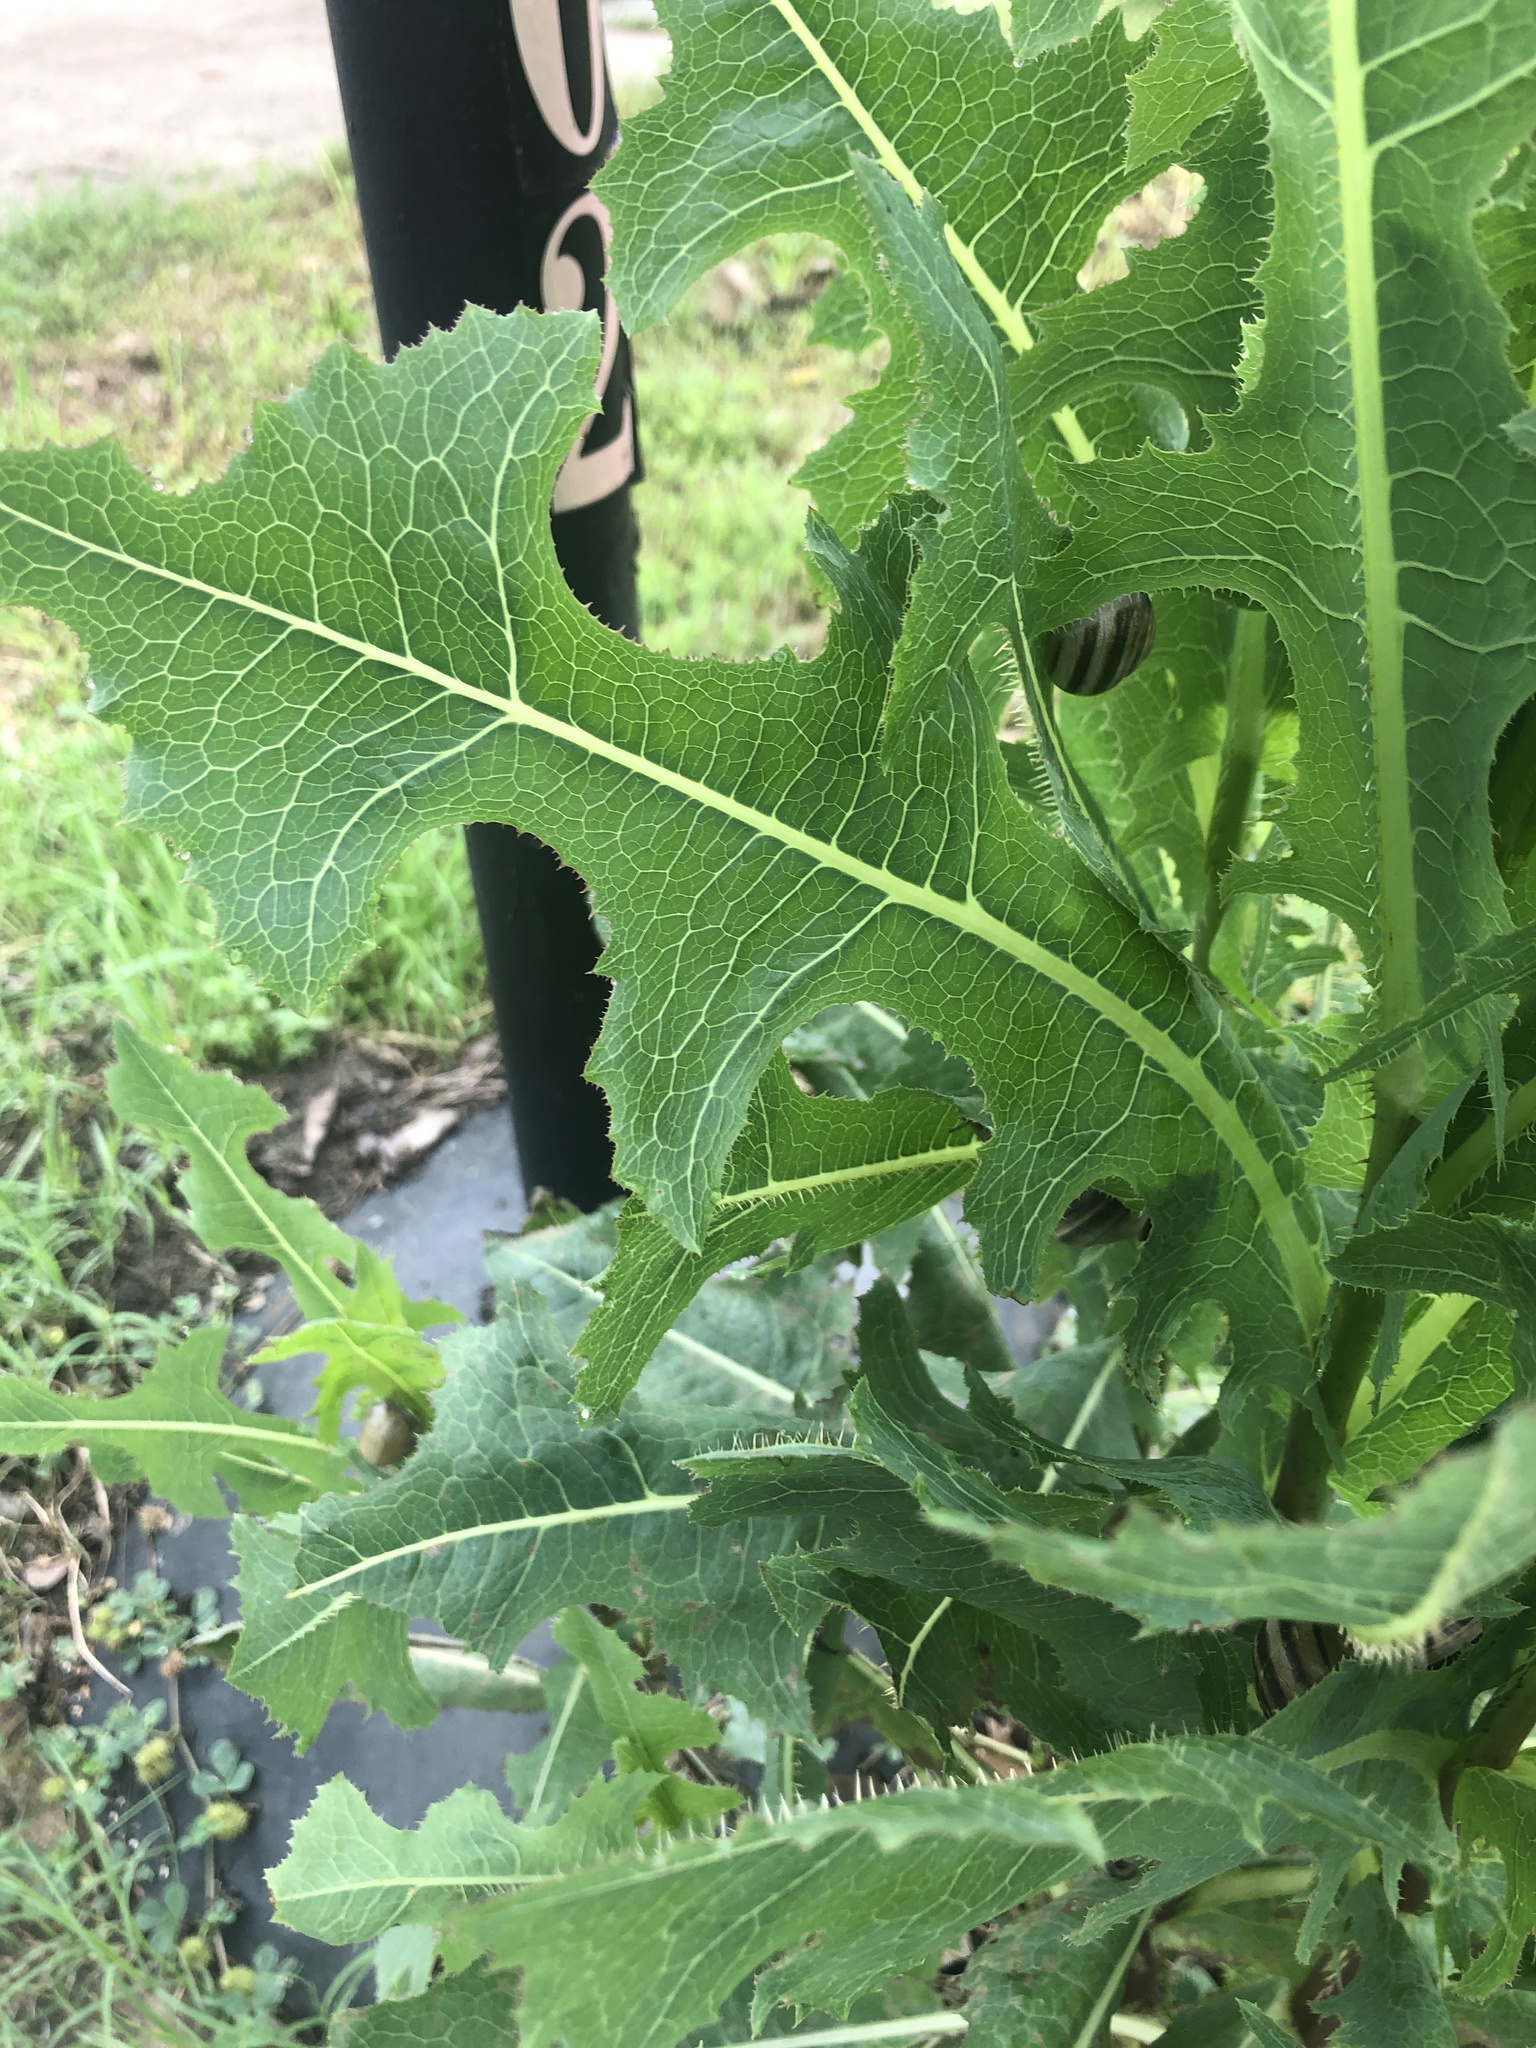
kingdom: Plantae
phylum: Tracheophyta
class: Magnoliopsida
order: Asterales
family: Asteraceae
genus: Lactuca
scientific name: Lactuca serriola
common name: Prickly lettuce
